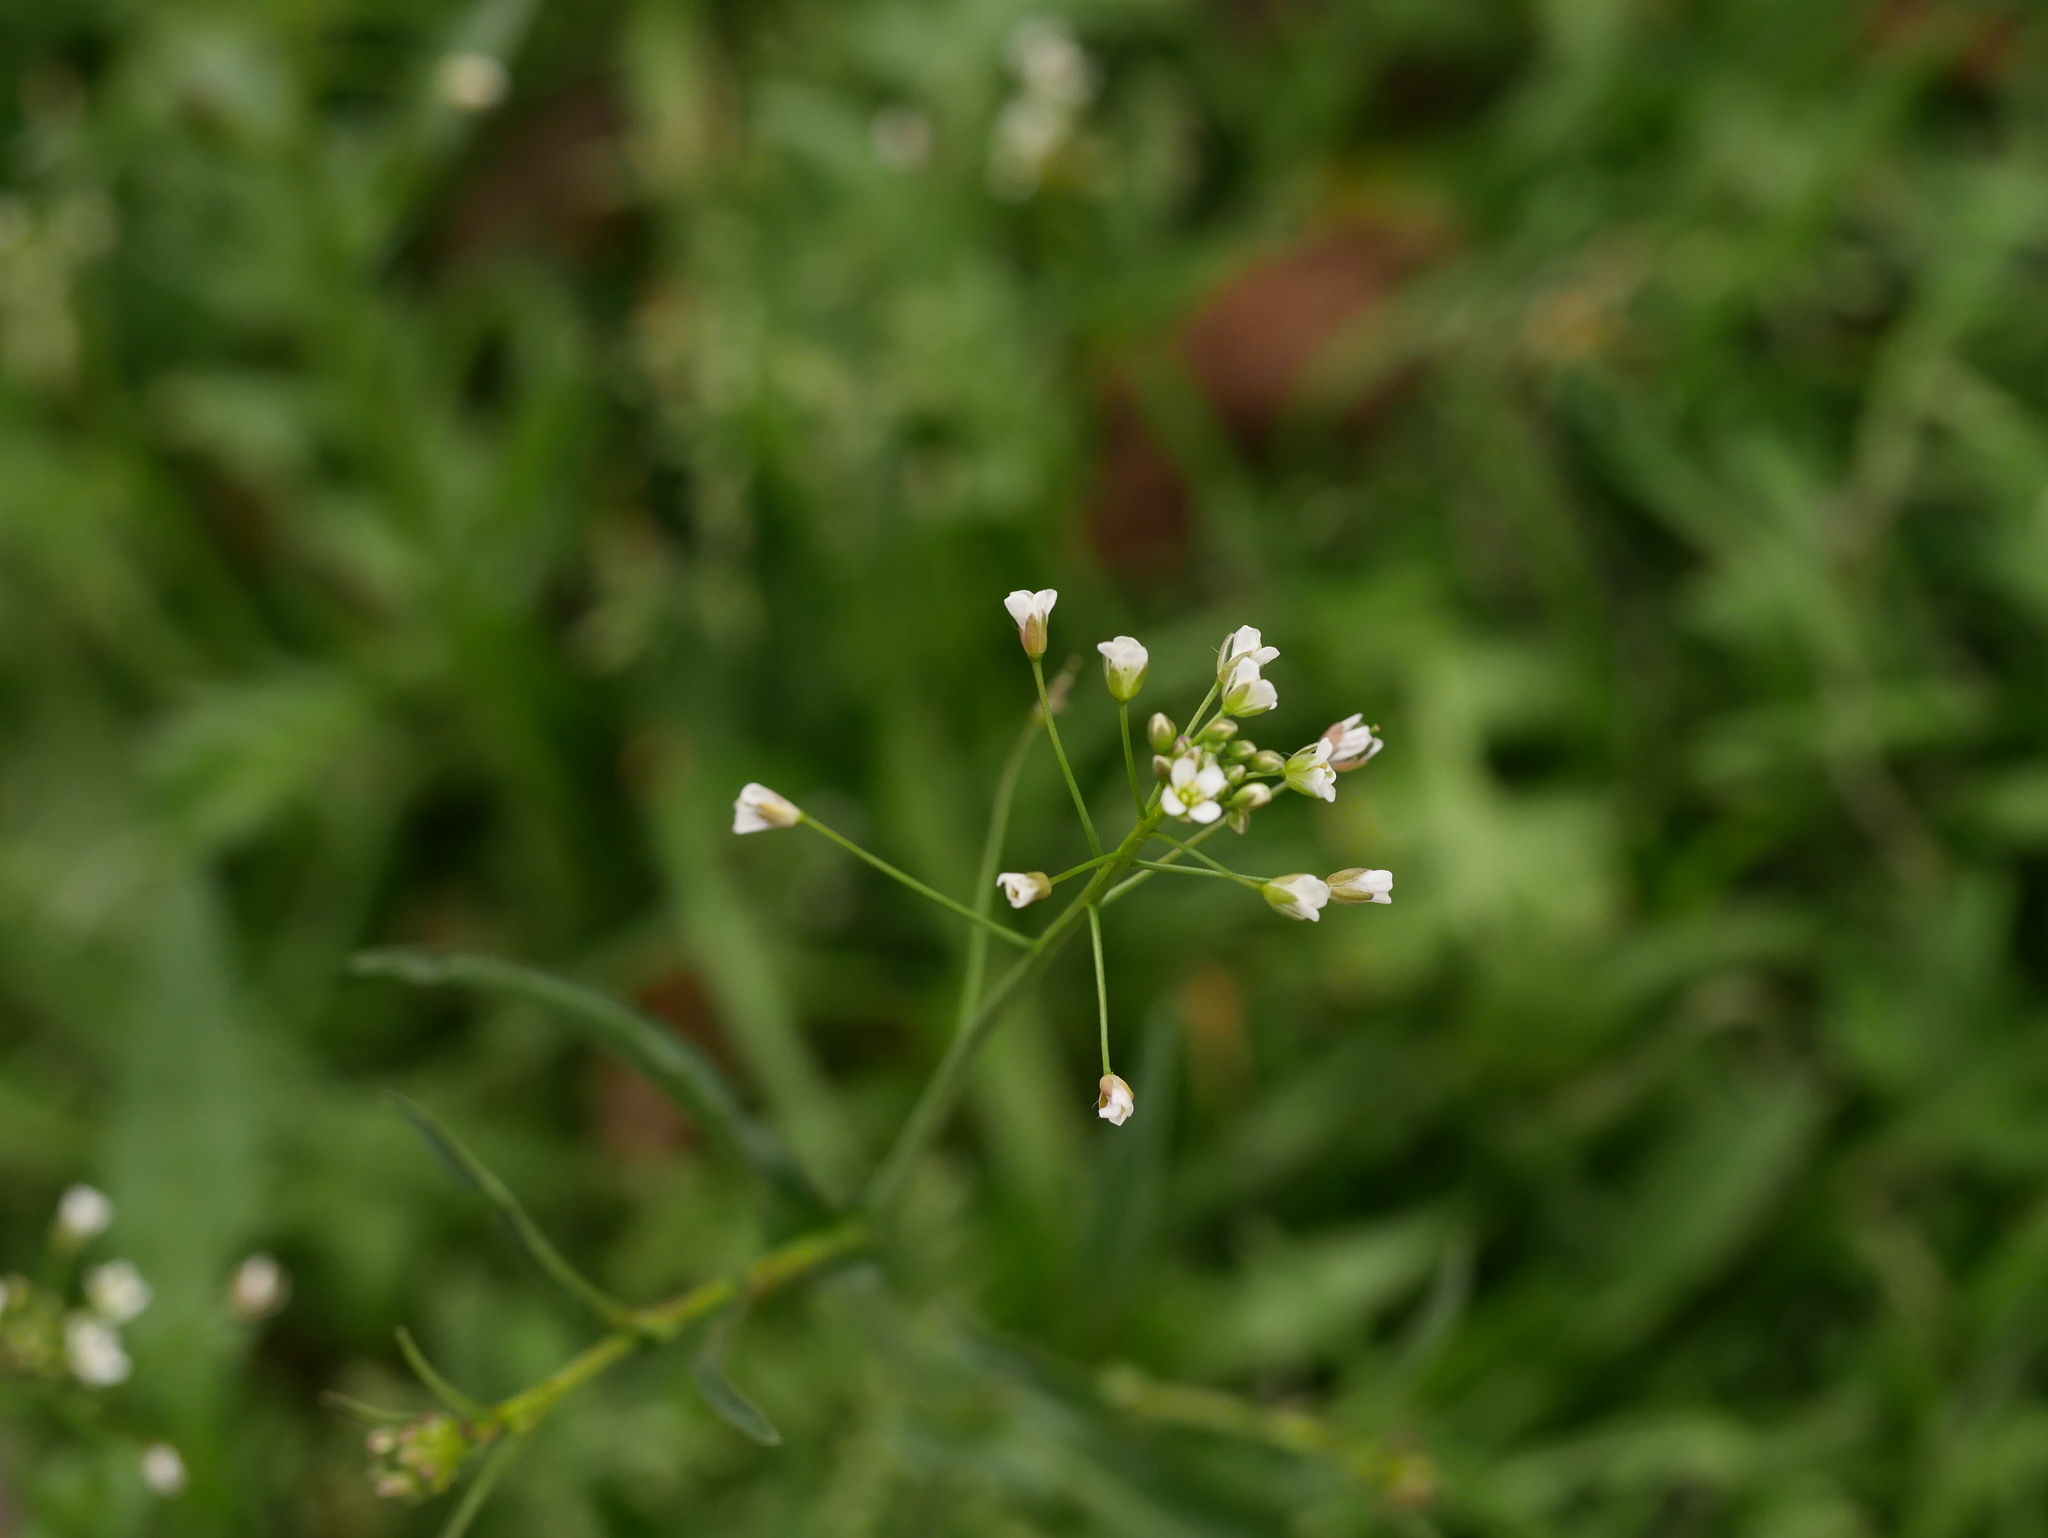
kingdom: Plantae
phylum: Tracheophyta
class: Magnoliopsida
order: Brassicales
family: Brassicaceae
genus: Capsella
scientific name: Capsella bursa-pastoris
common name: Shepherd's purse
